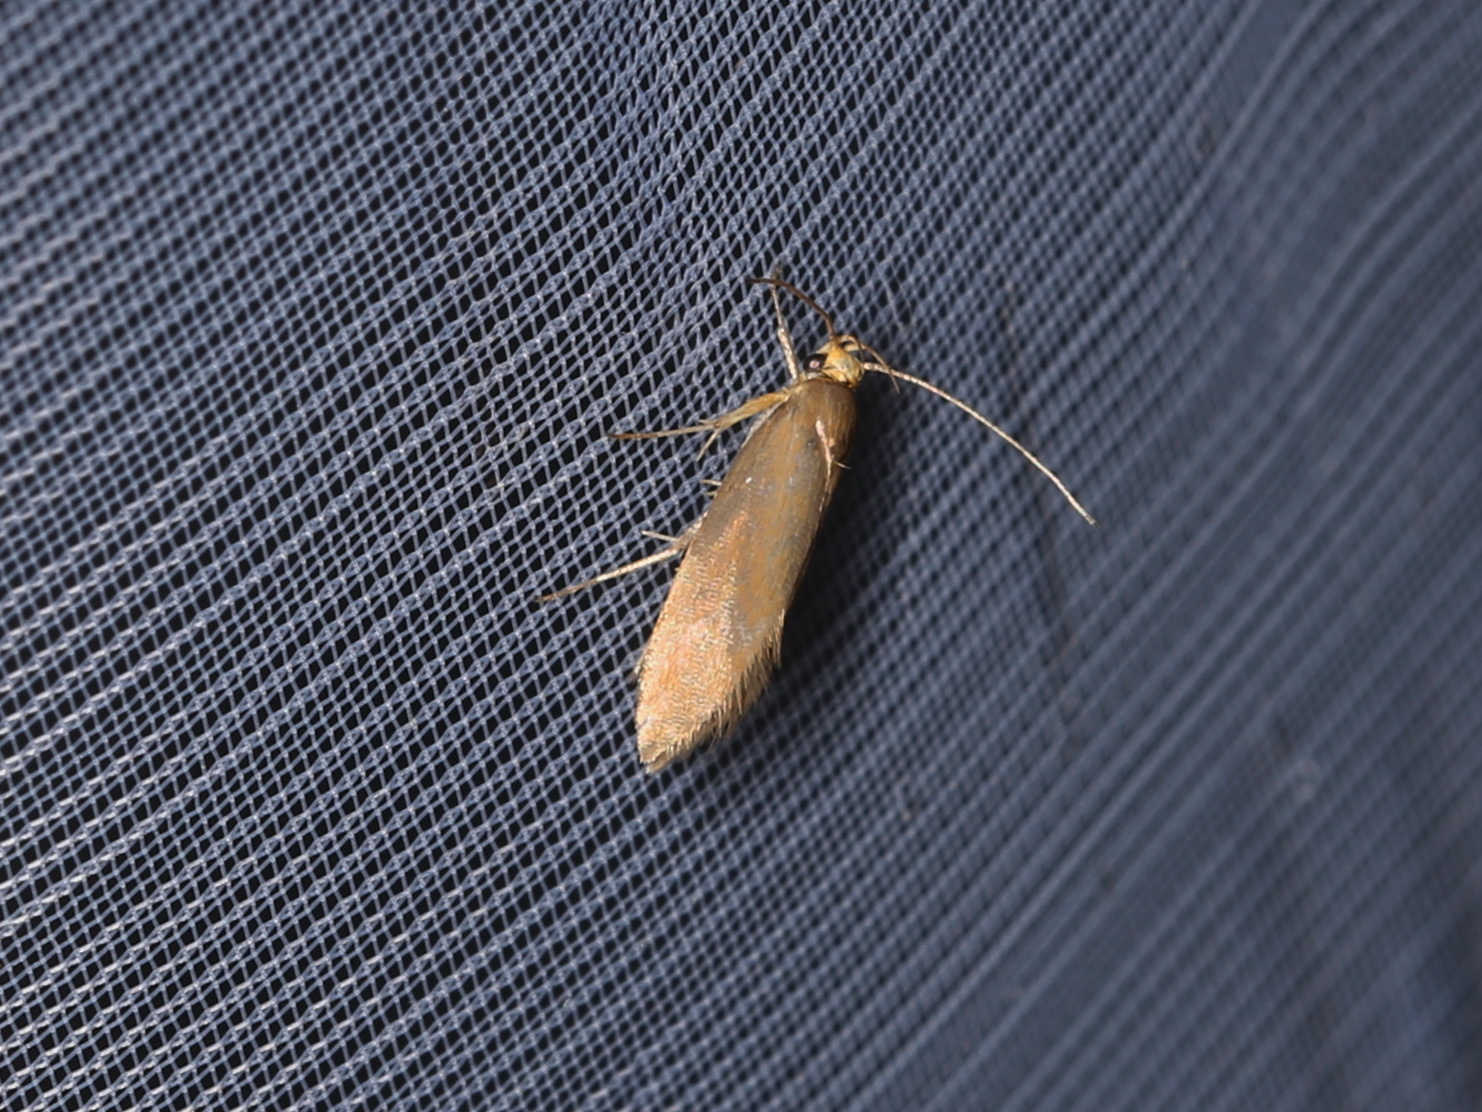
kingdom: Animalia
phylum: Arthropoda
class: Insecta
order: Lepidoptera
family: Oecophoridae
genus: Borkhausenia
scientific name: Borkhausenia Crassa unitella
